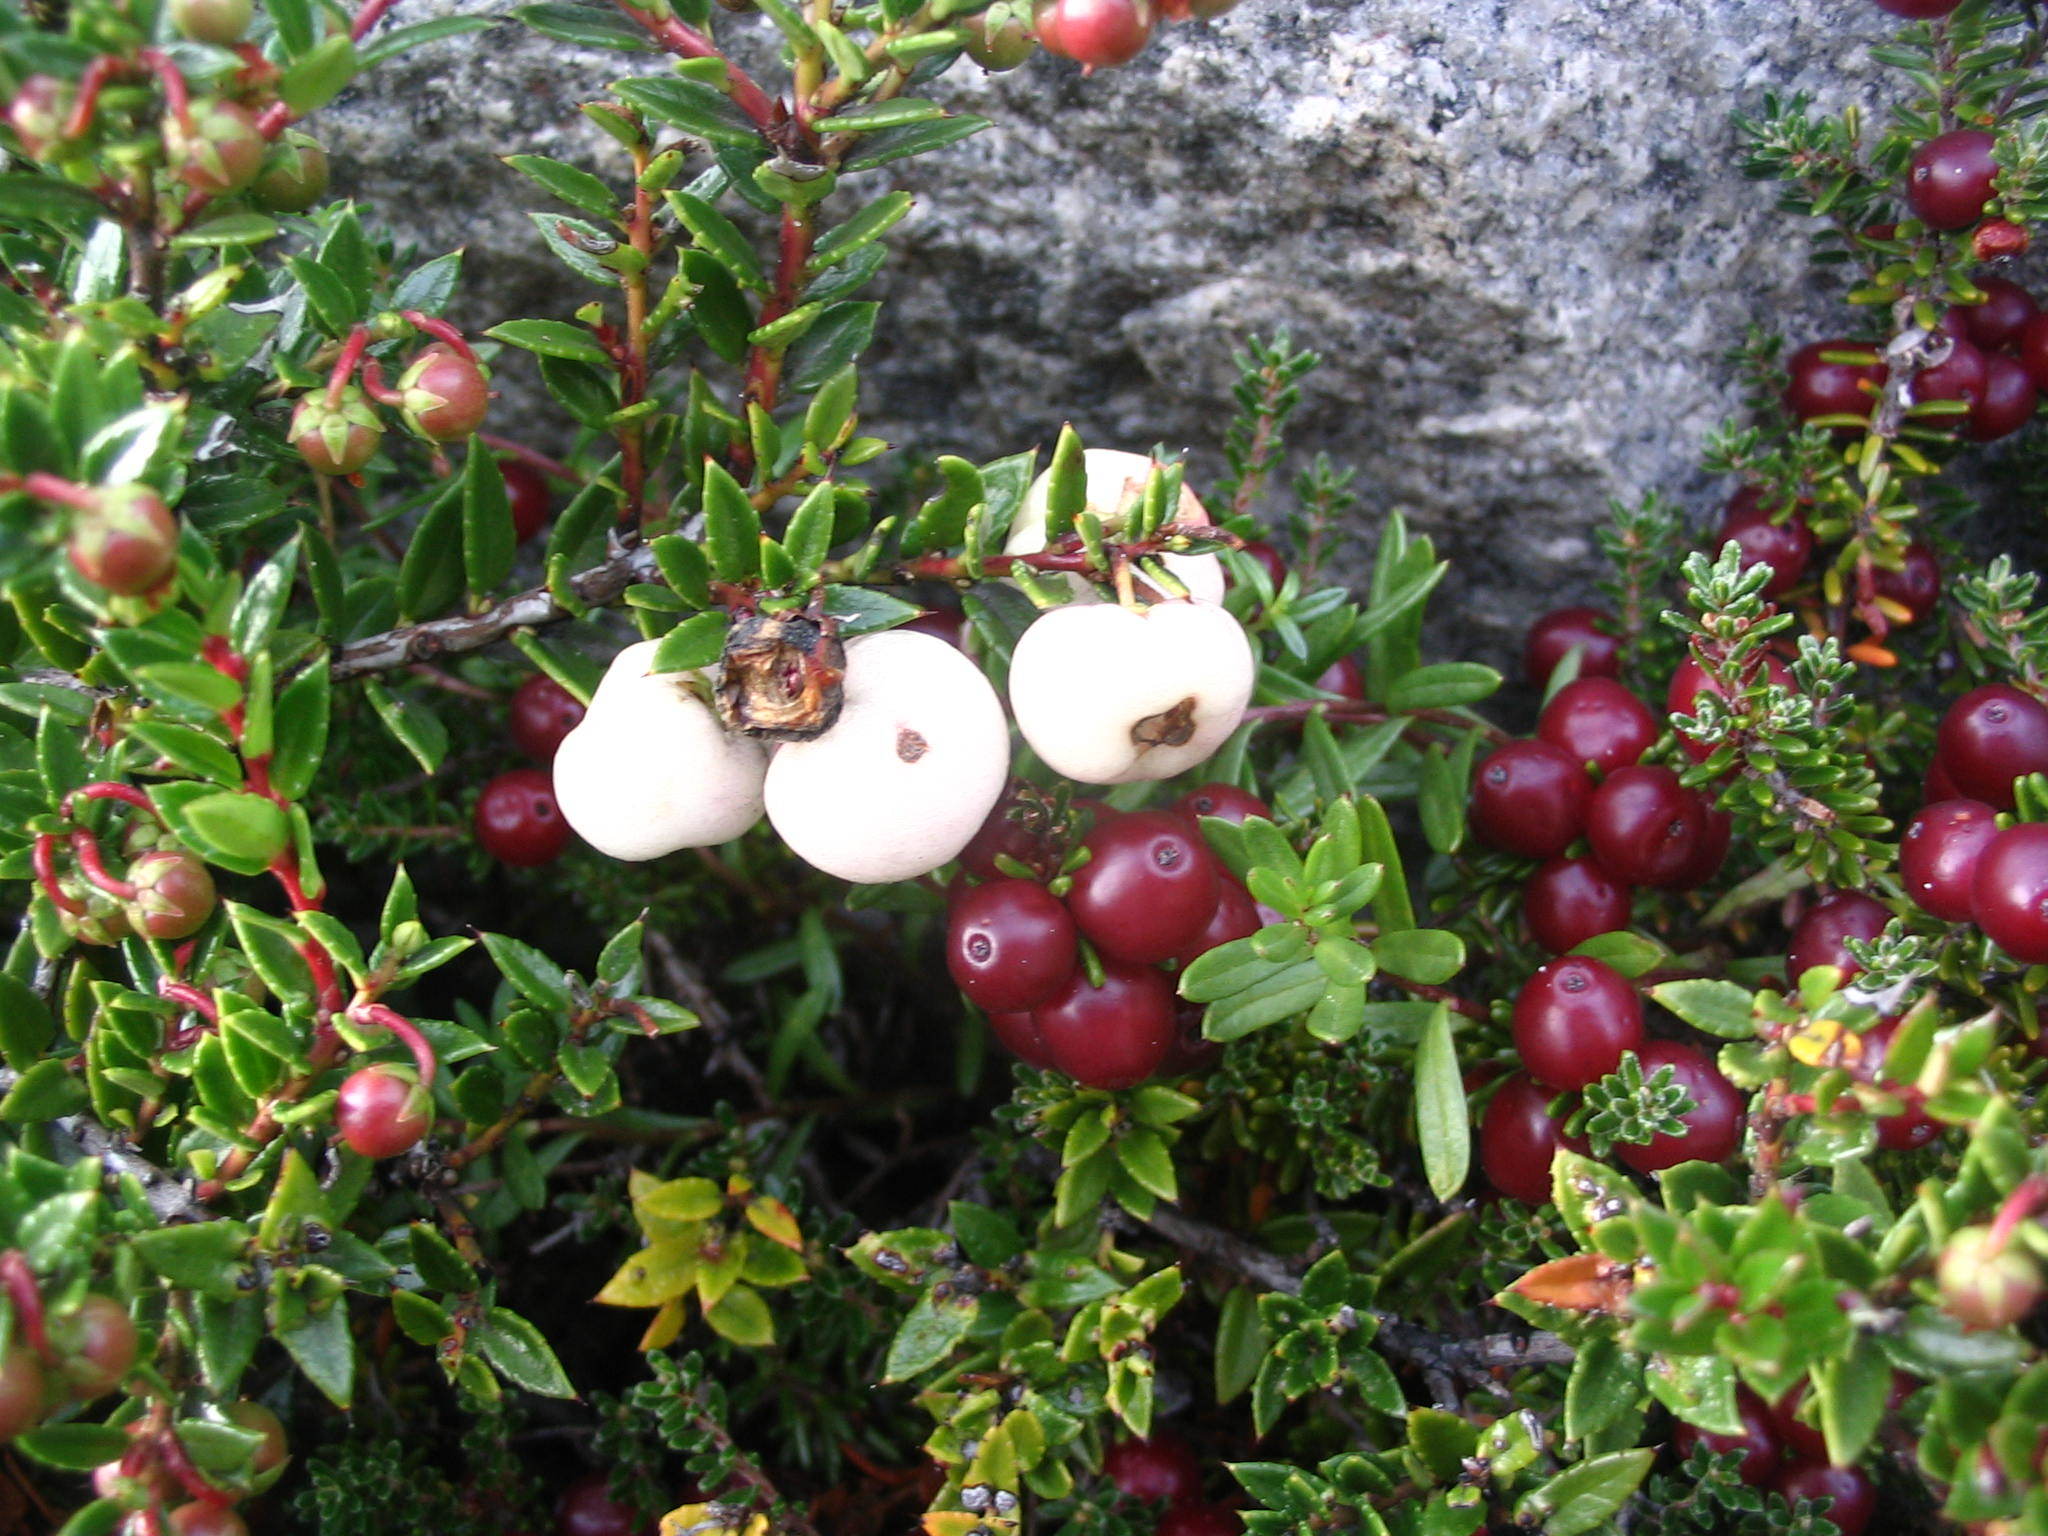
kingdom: Plantae
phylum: Tracheophyta
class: Magnoliopsida
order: Ericales
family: Ericaceae
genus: Gaultheria
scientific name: Gaultheria mucronata
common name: Prickly heath
